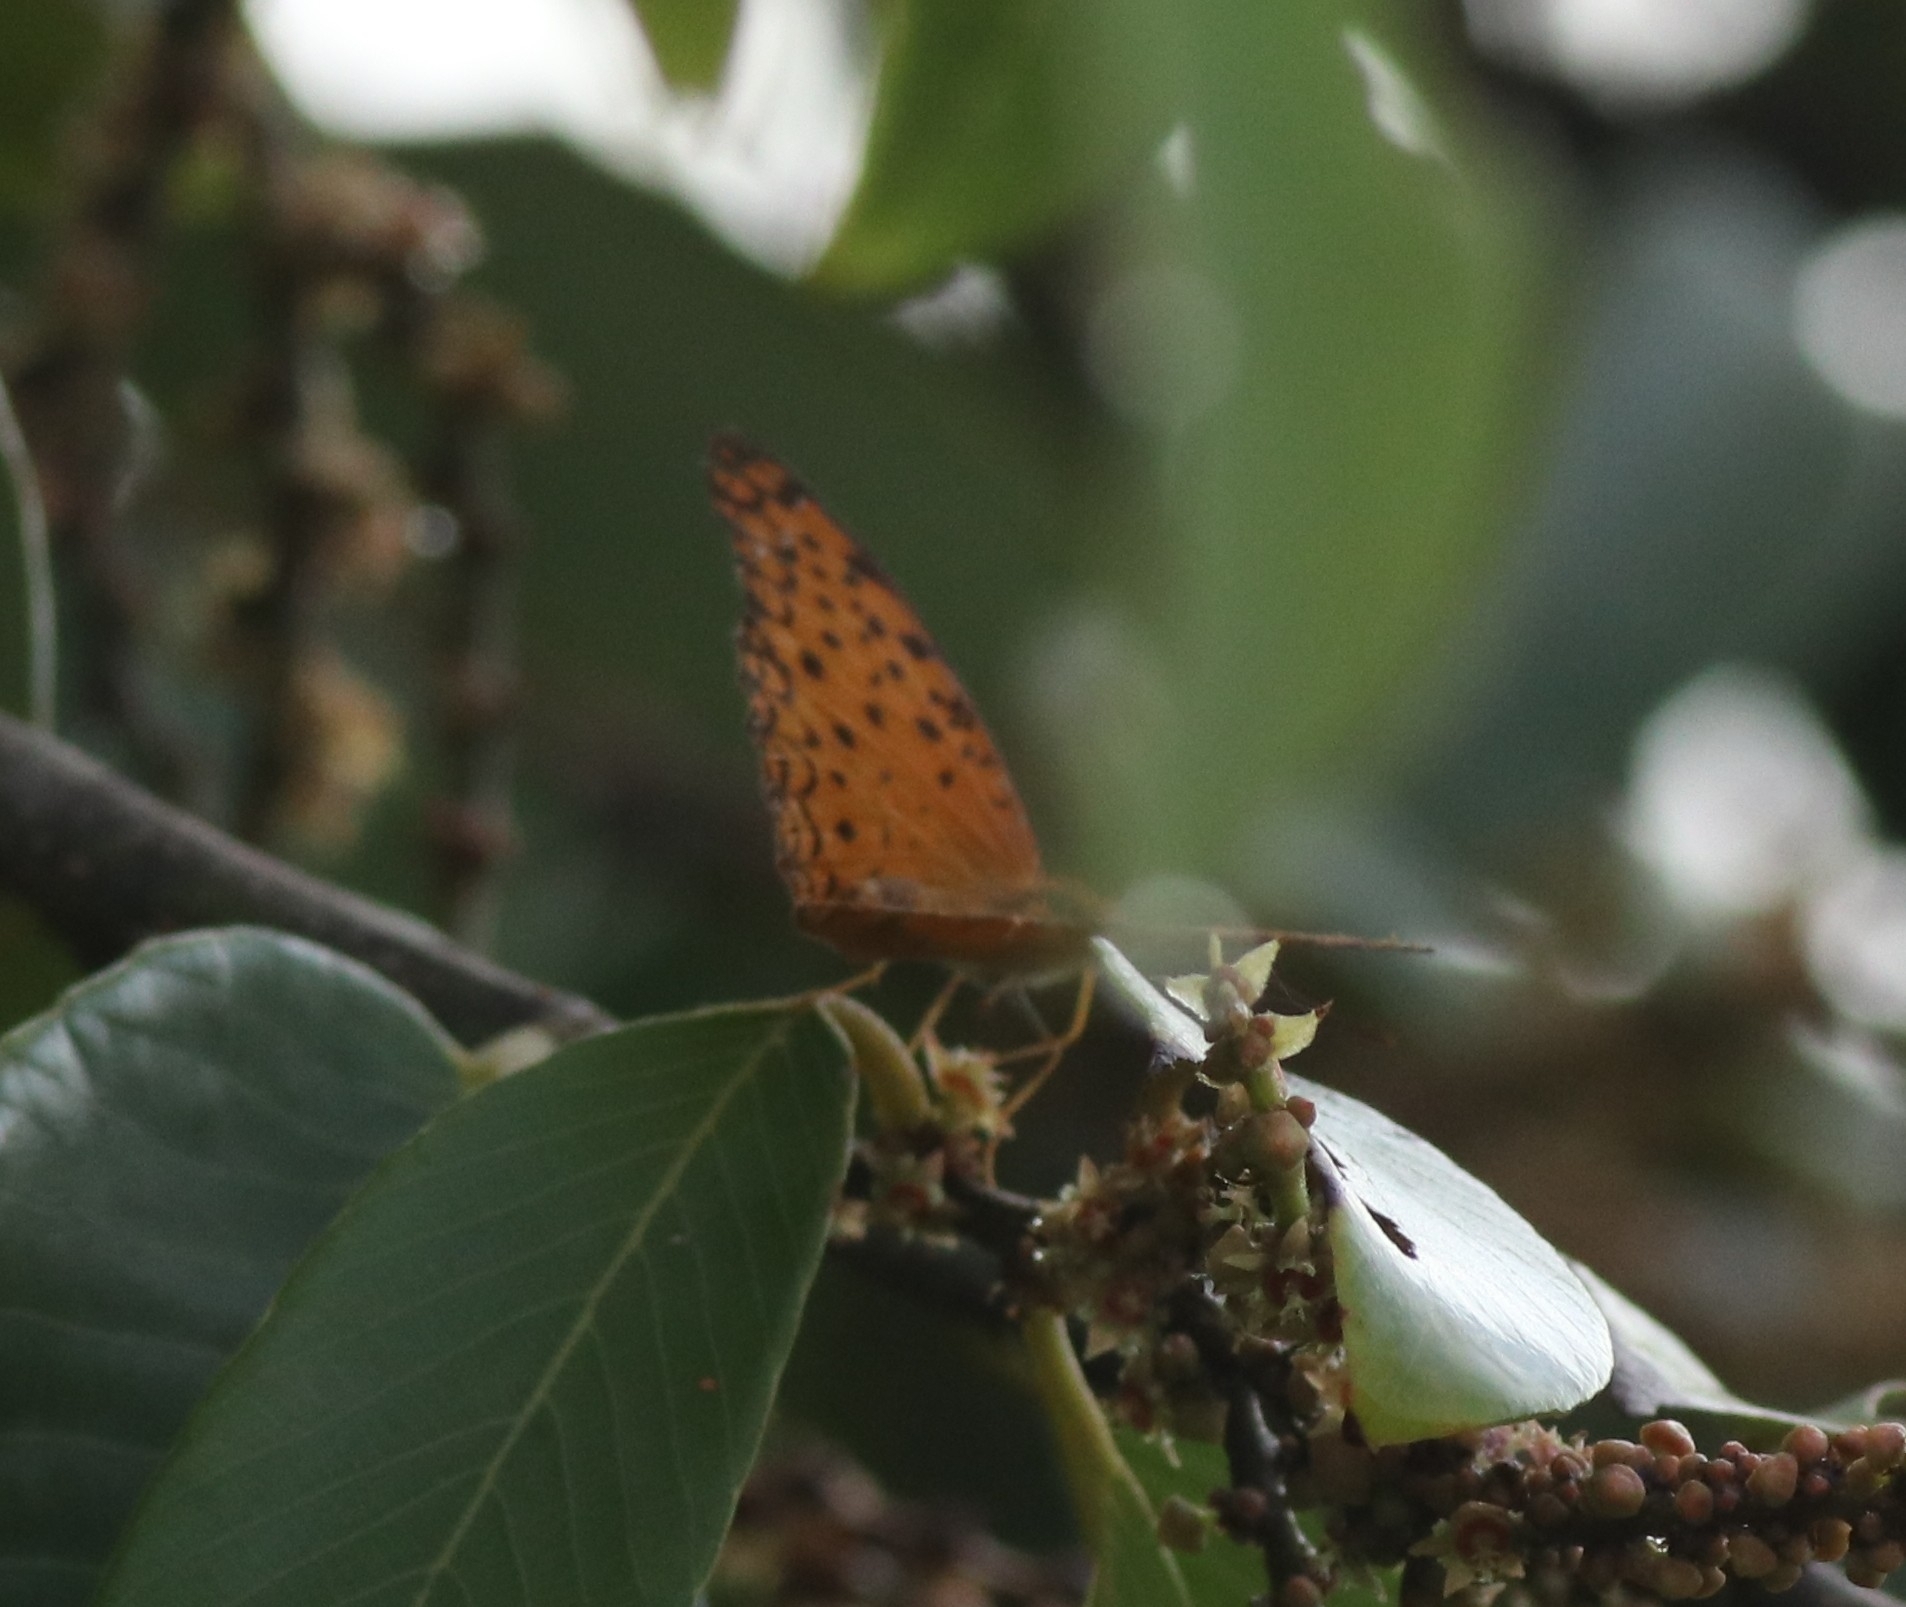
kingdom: Animalia
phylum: Arthropoda
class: Insecta
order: Lepidoptera
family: Nymphalidae
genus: Phalanta
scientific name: Phalanta phalantha
